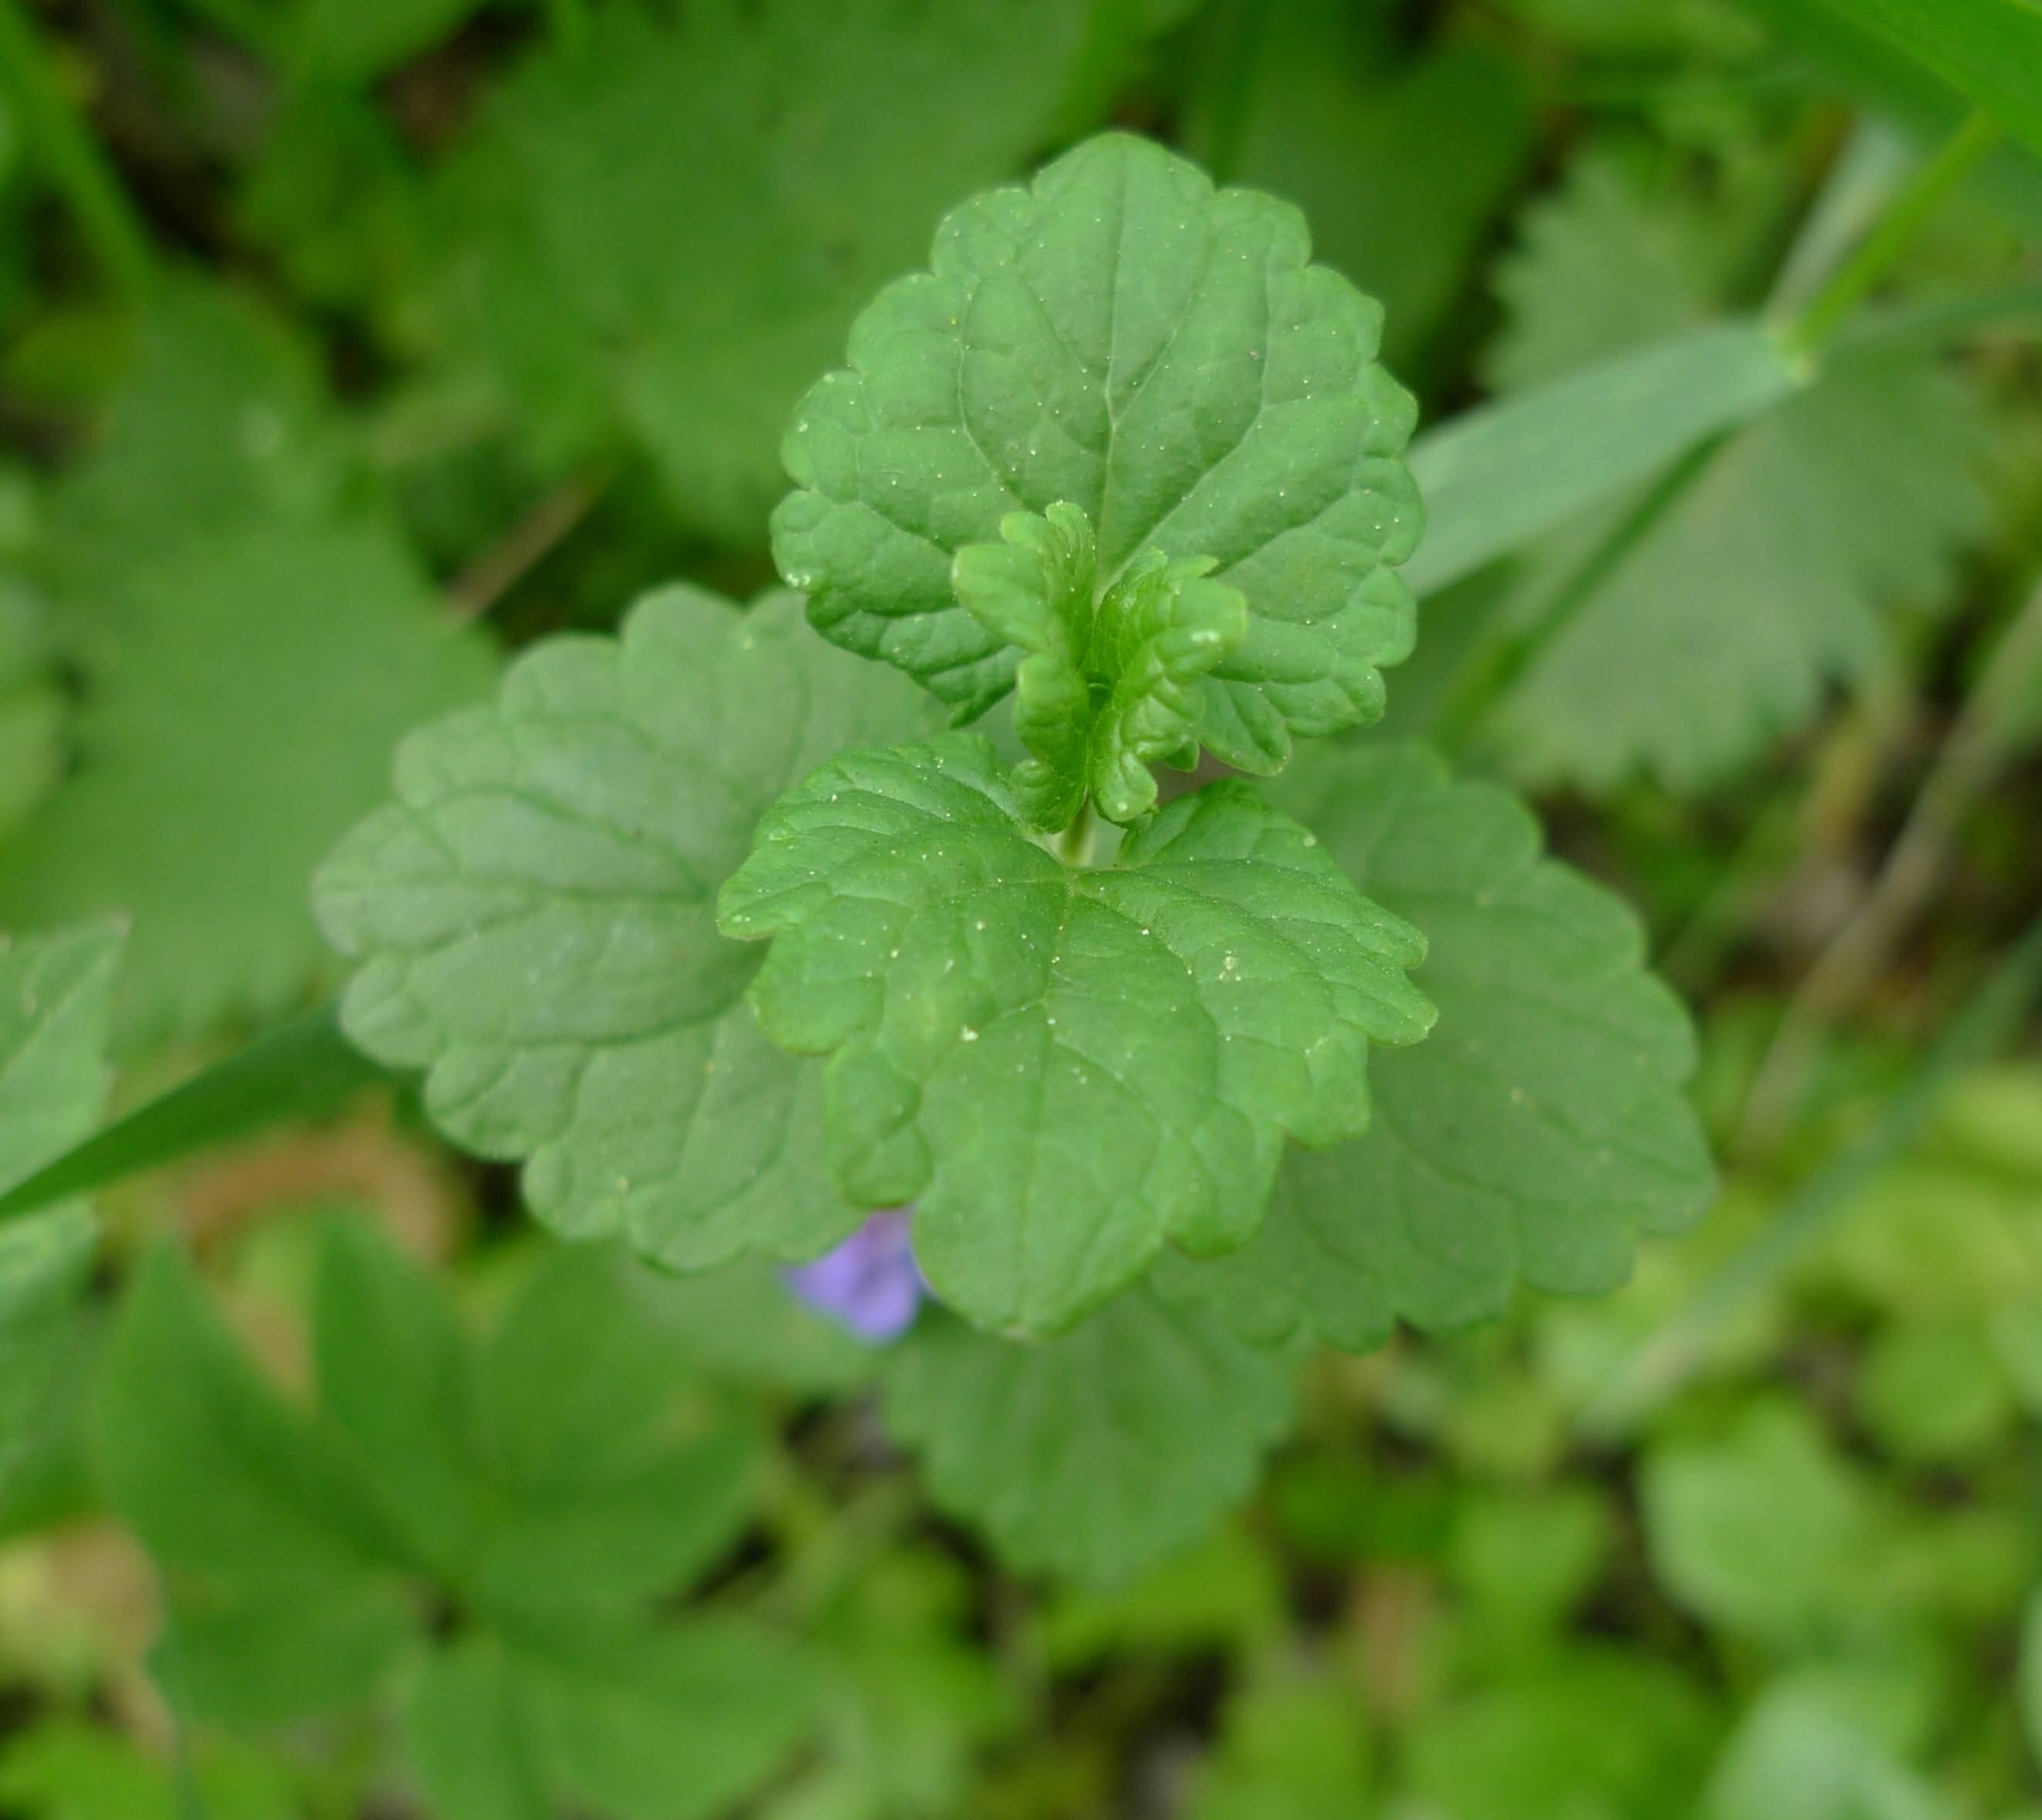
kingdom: Plantae
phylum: Tracheophyta
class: Magnoliopsida
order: Lamiales
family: Lamiaceae
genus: Glechoma
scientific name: Glechoma hederacea
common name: Ground ivy
